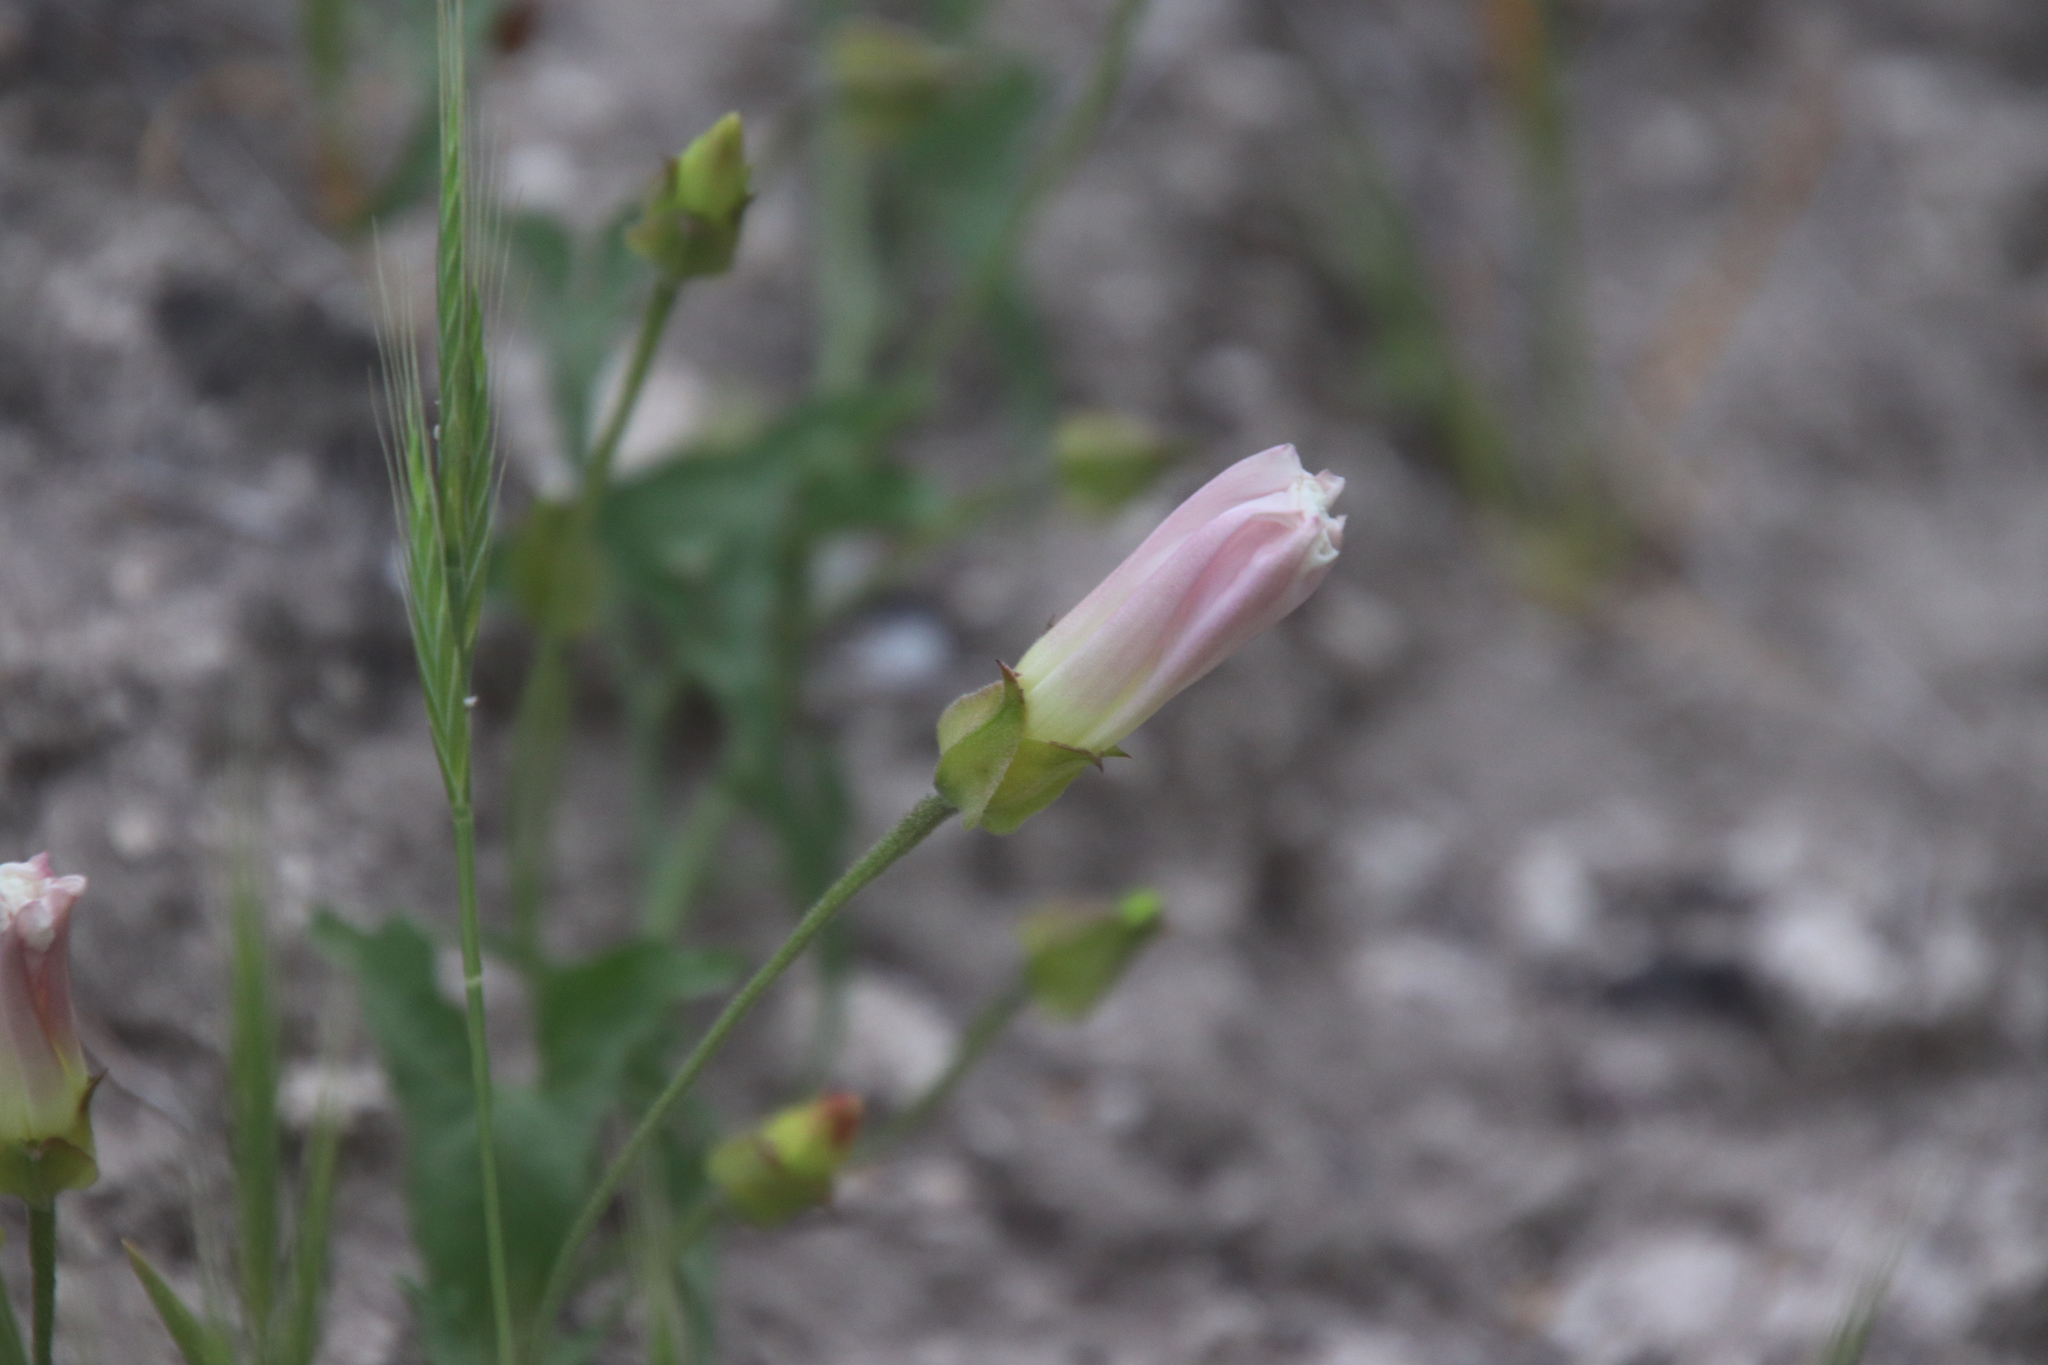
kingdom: Plantae
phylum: Tracheophyta
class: Magnoliopsida
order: Solanales
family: Convolvulaceae
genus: Calystegia
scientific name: Calystegia macrostegia
